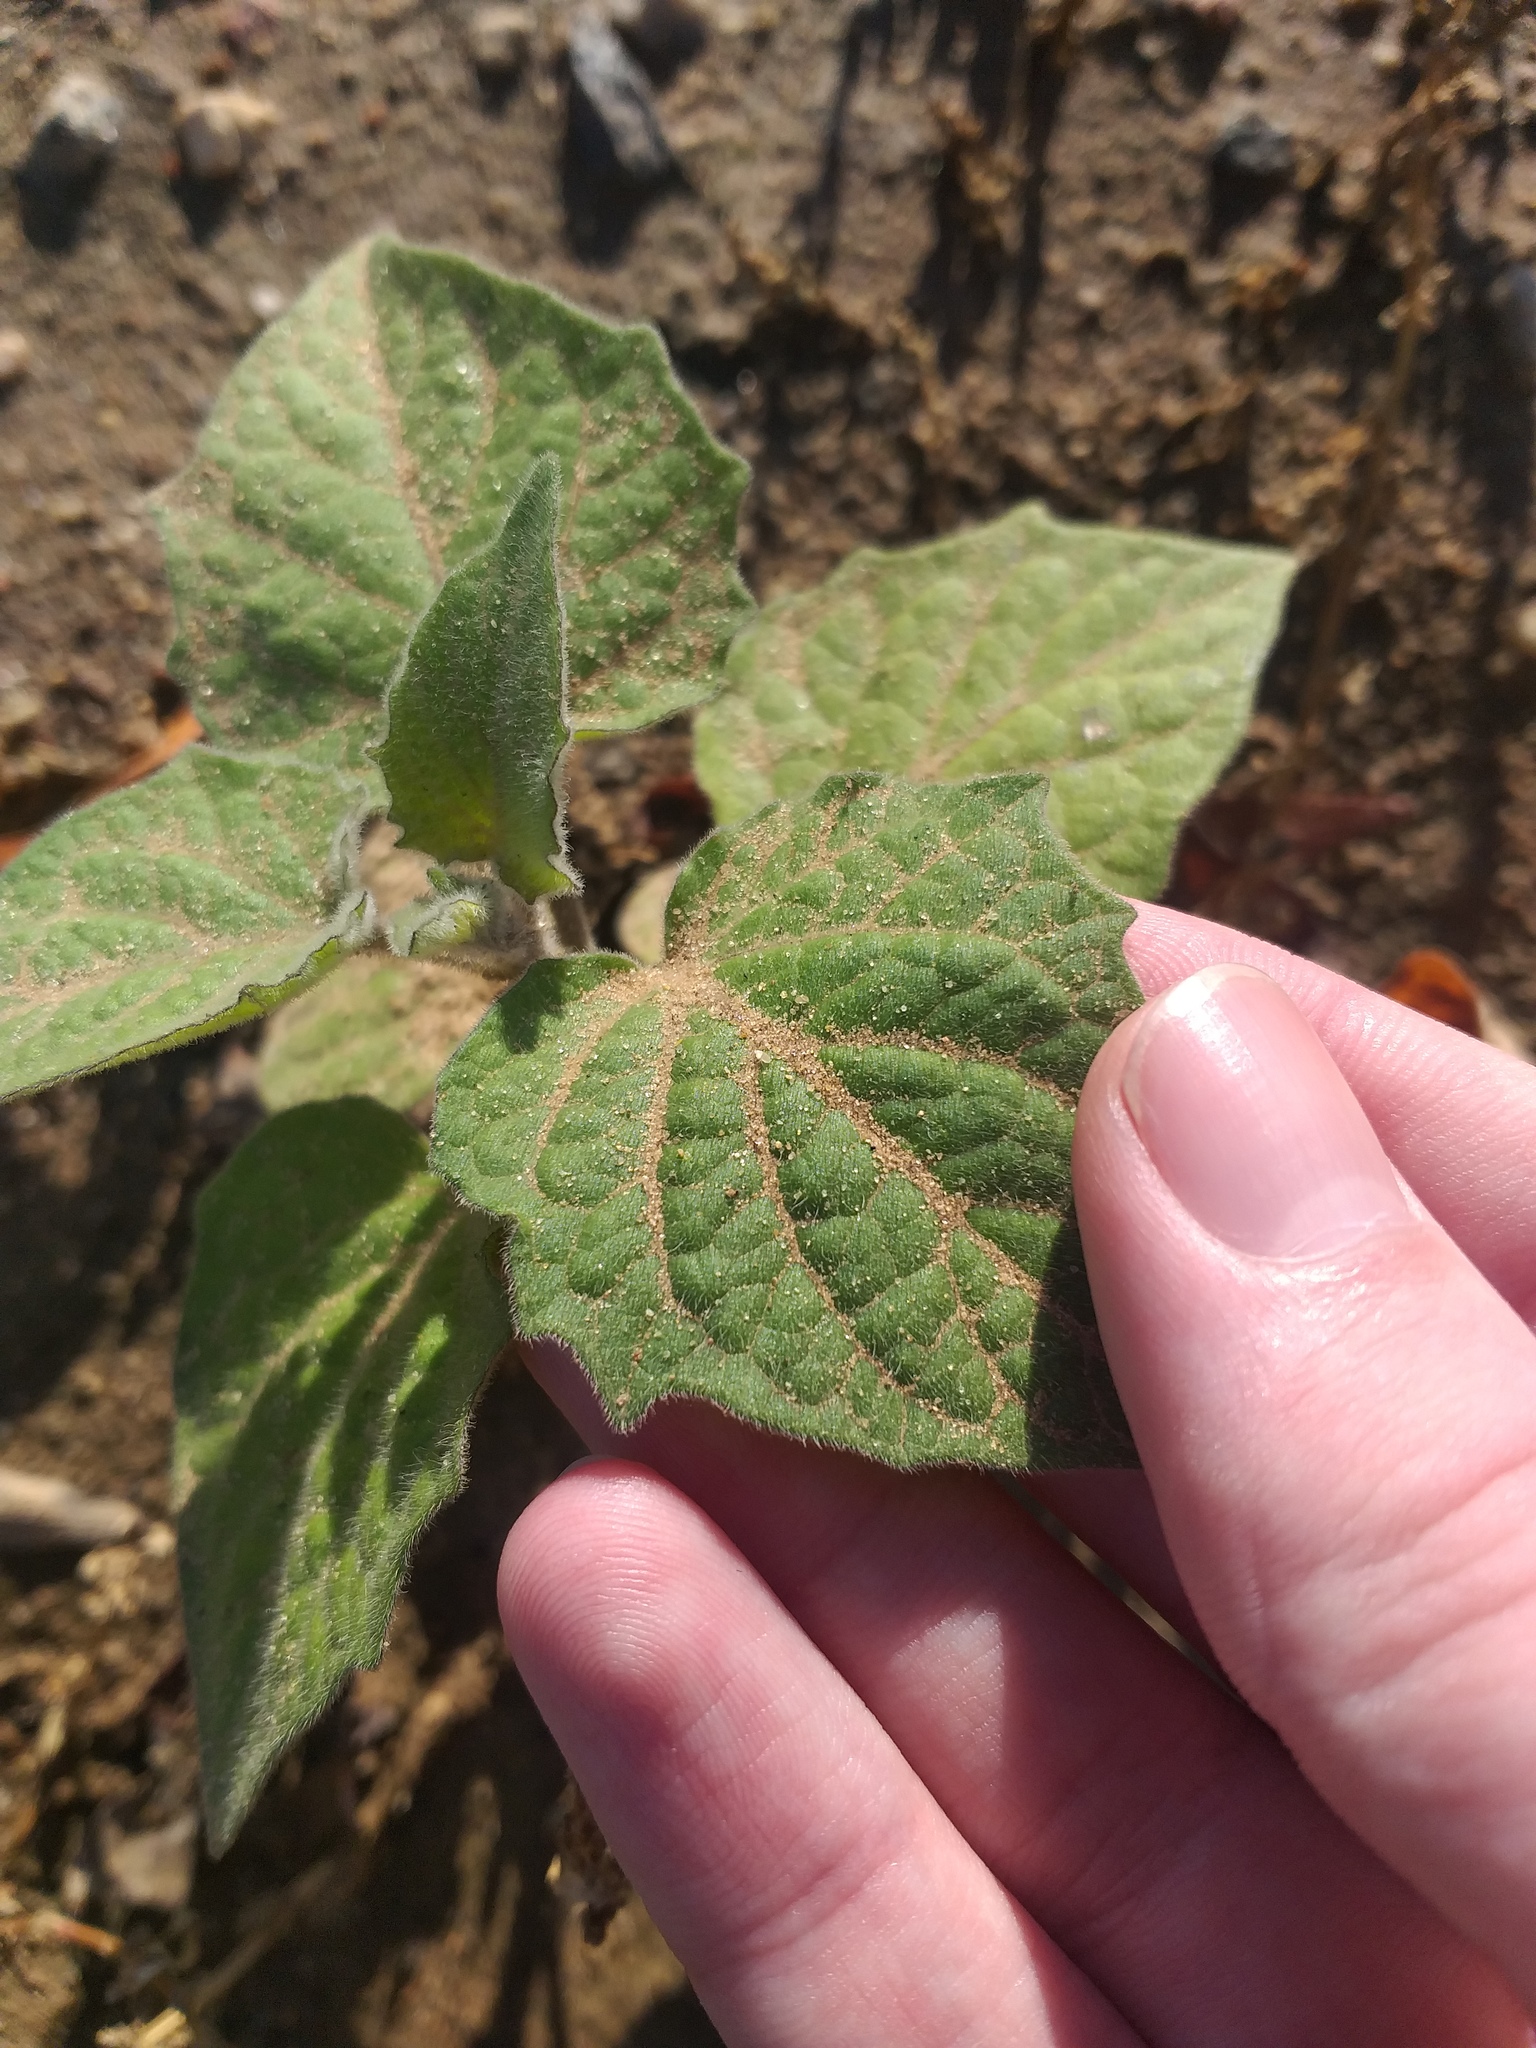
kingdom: Plantae
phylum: Tracheophyta
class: Magnoliopsida
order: Solanales
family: Solanaceae
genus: Physalis
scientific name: Physalis peruviana
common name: Cape-gooseberry
